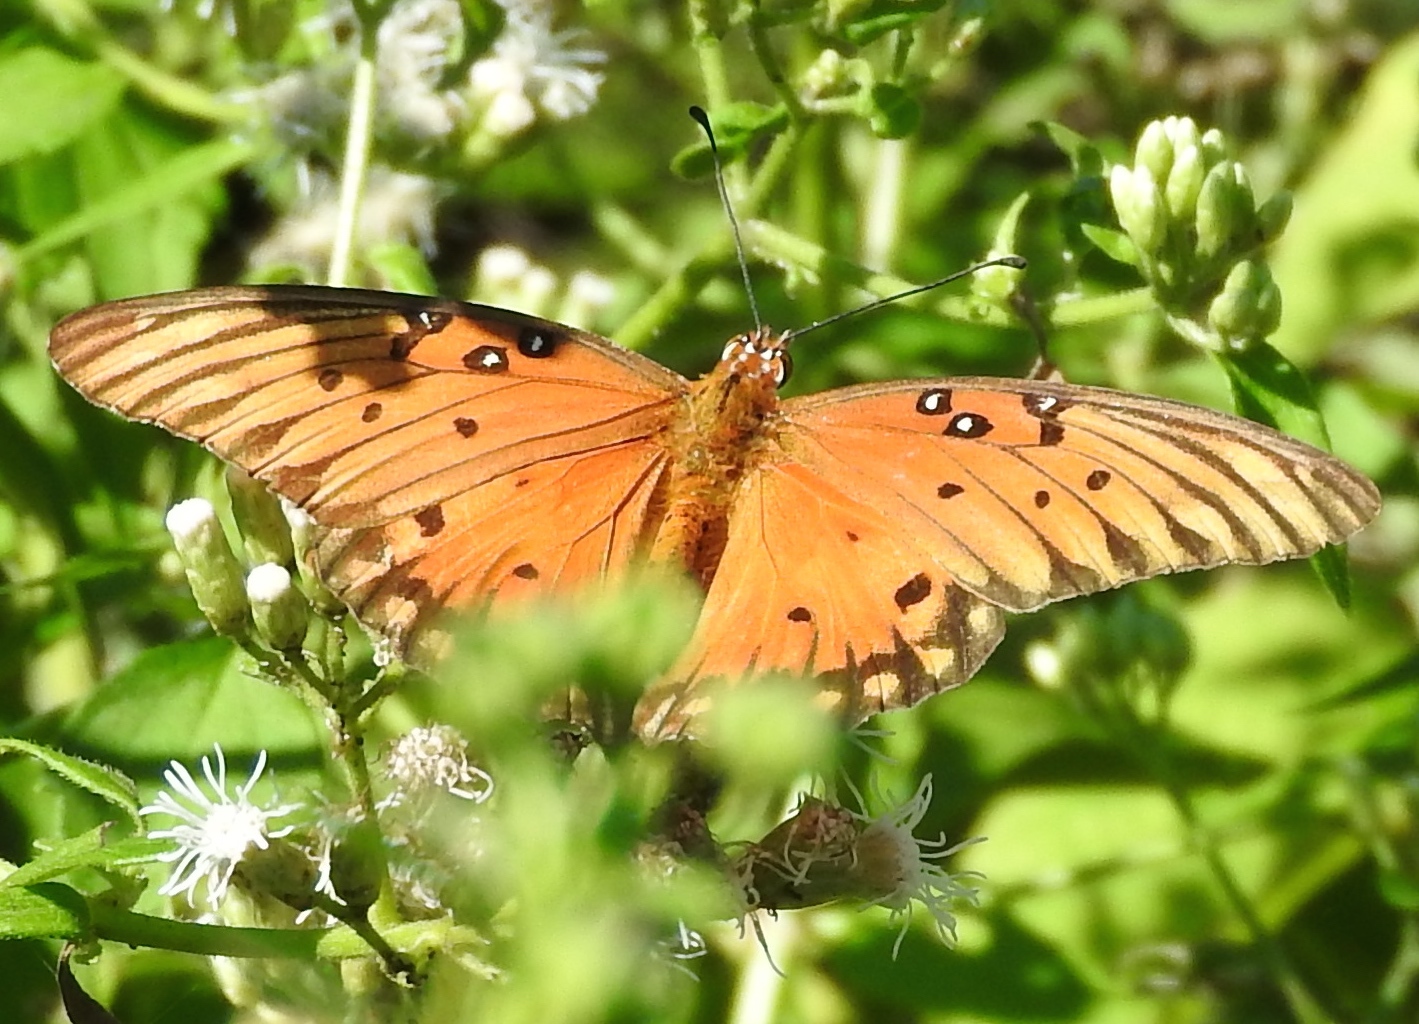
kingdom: Animalia
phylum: Arthropoda
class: Insecta
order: Lepidoptera
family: Nymphalidae
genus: Dione
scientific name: Dione vanillae
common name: Gulf fritillary
